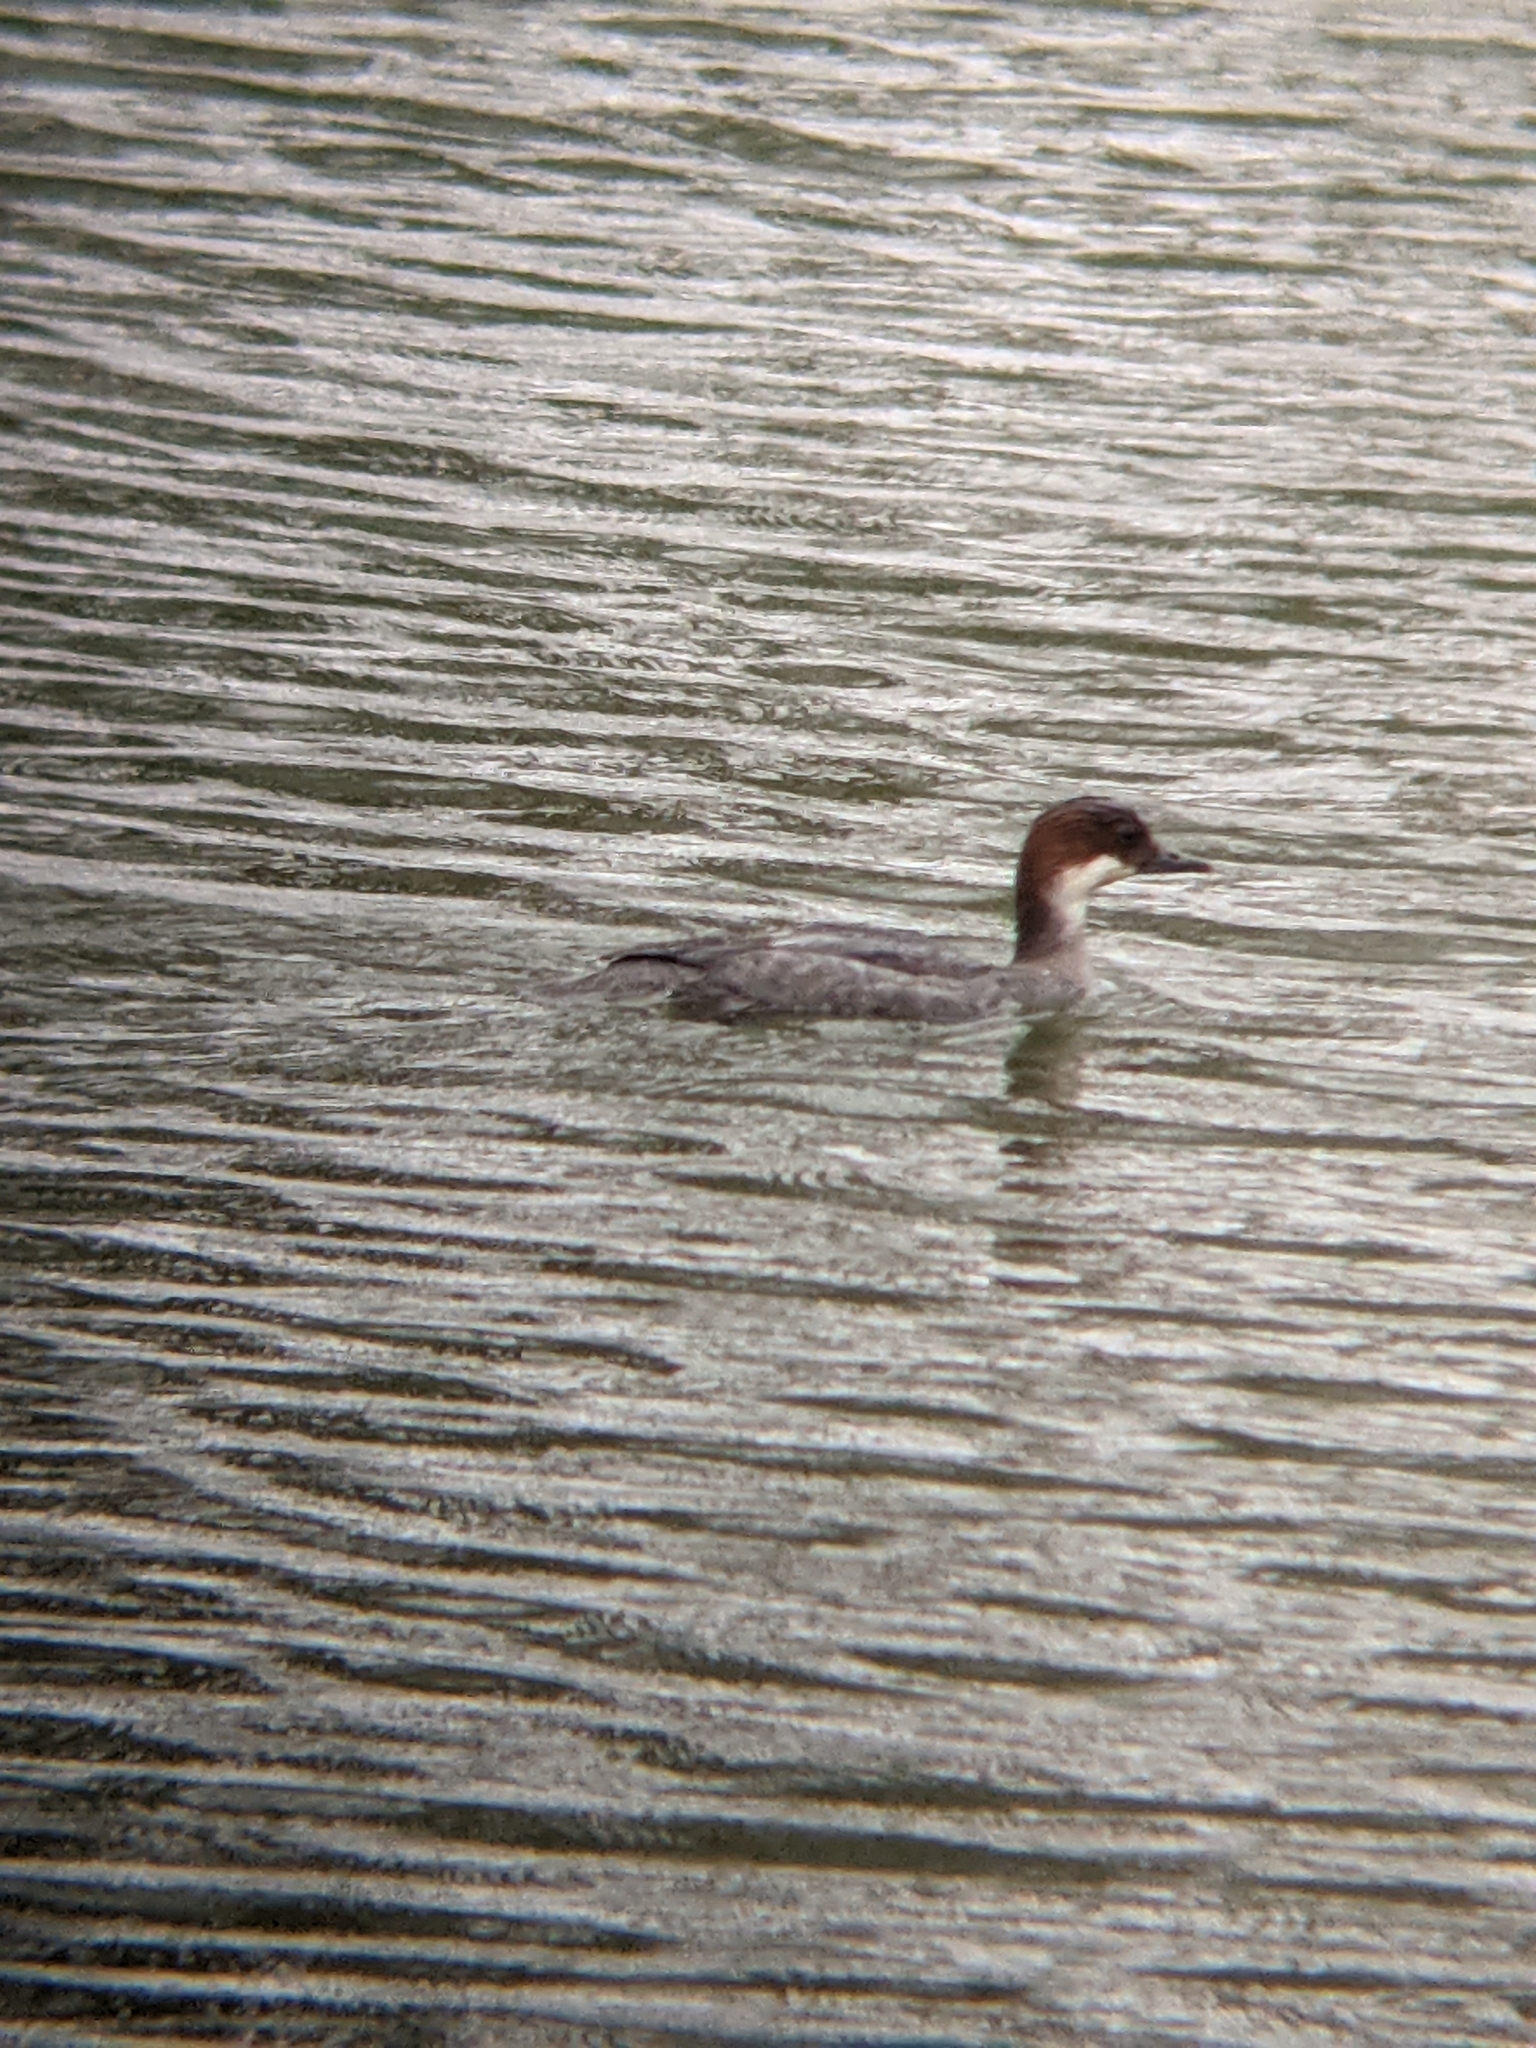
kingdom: Animalia
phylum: Chordata
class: Aves
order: Anseriformes
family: Anatidae
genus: Mergellus
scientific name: Mergellus albellus
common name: Smew
